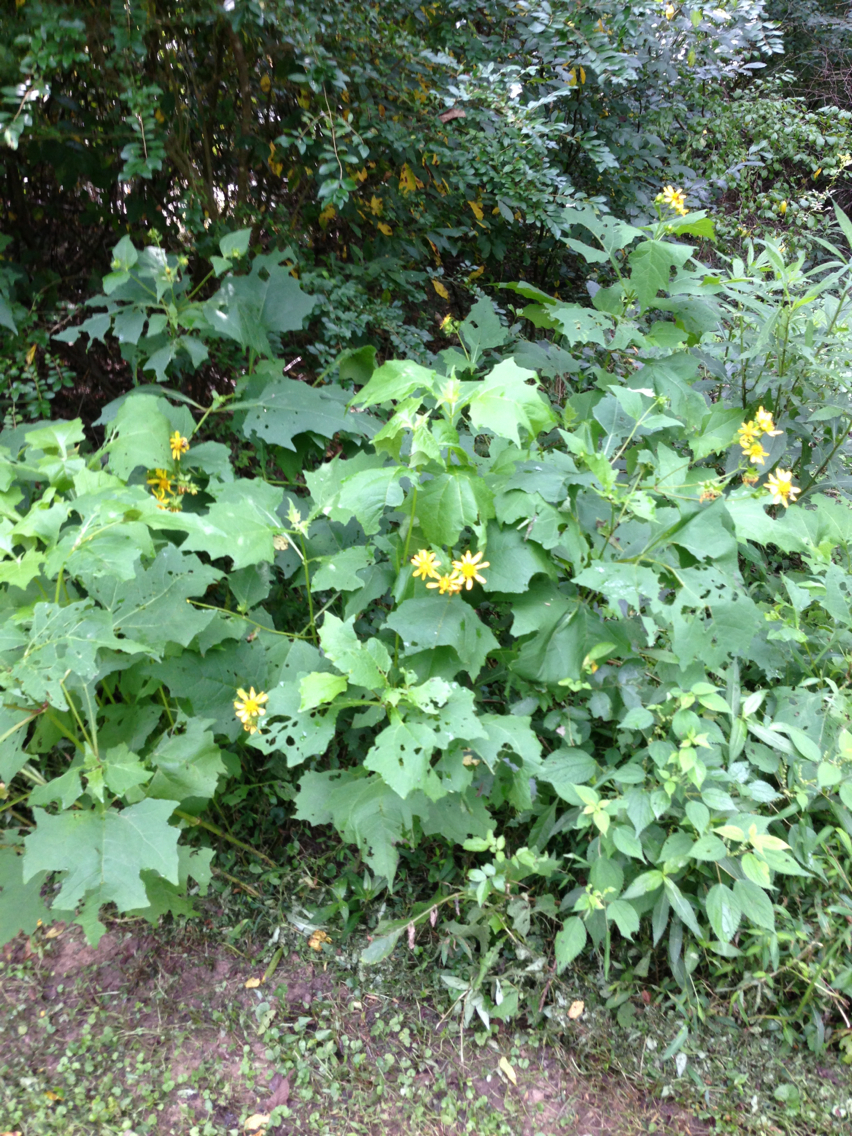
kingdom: Plantae
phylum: Tracheophyta
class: Magnoliopsida
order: Asterales
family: Asteraceae
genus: Smallanthus
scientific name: Smallanthus uvedalia
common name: Bear's-foot
